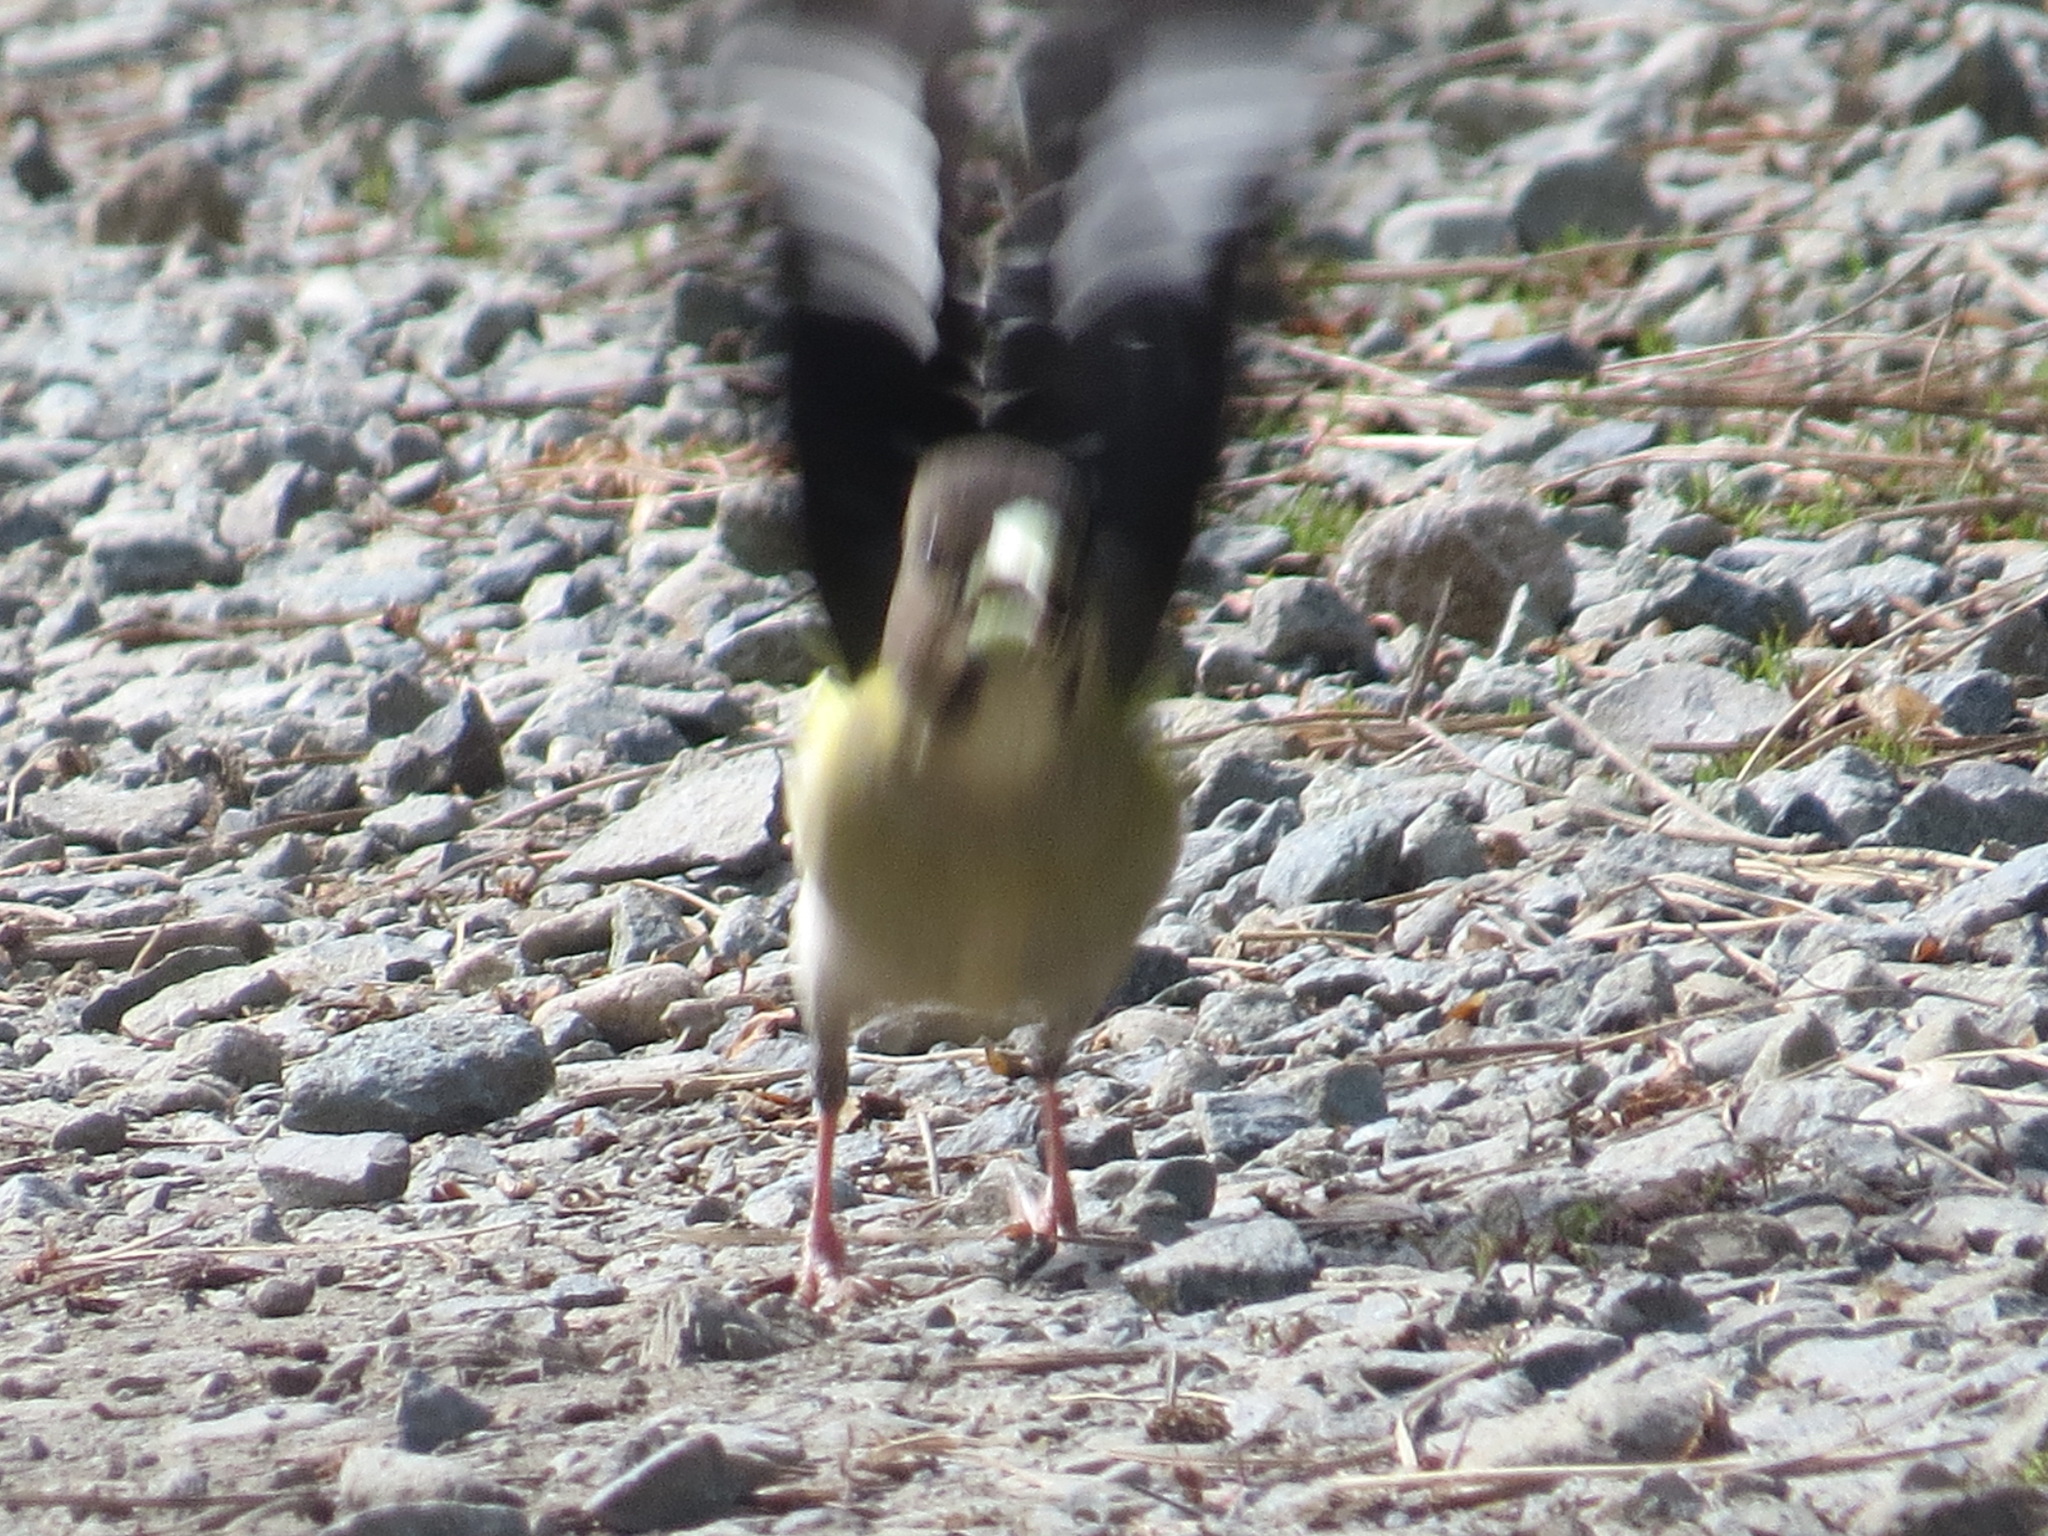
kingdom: Animalia
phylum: Chordata
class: Aves
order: Passeriformes
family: Fringillidae
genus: Hesperiphona
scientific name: Hesperiphona vespertina
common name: Evening grosbeak
